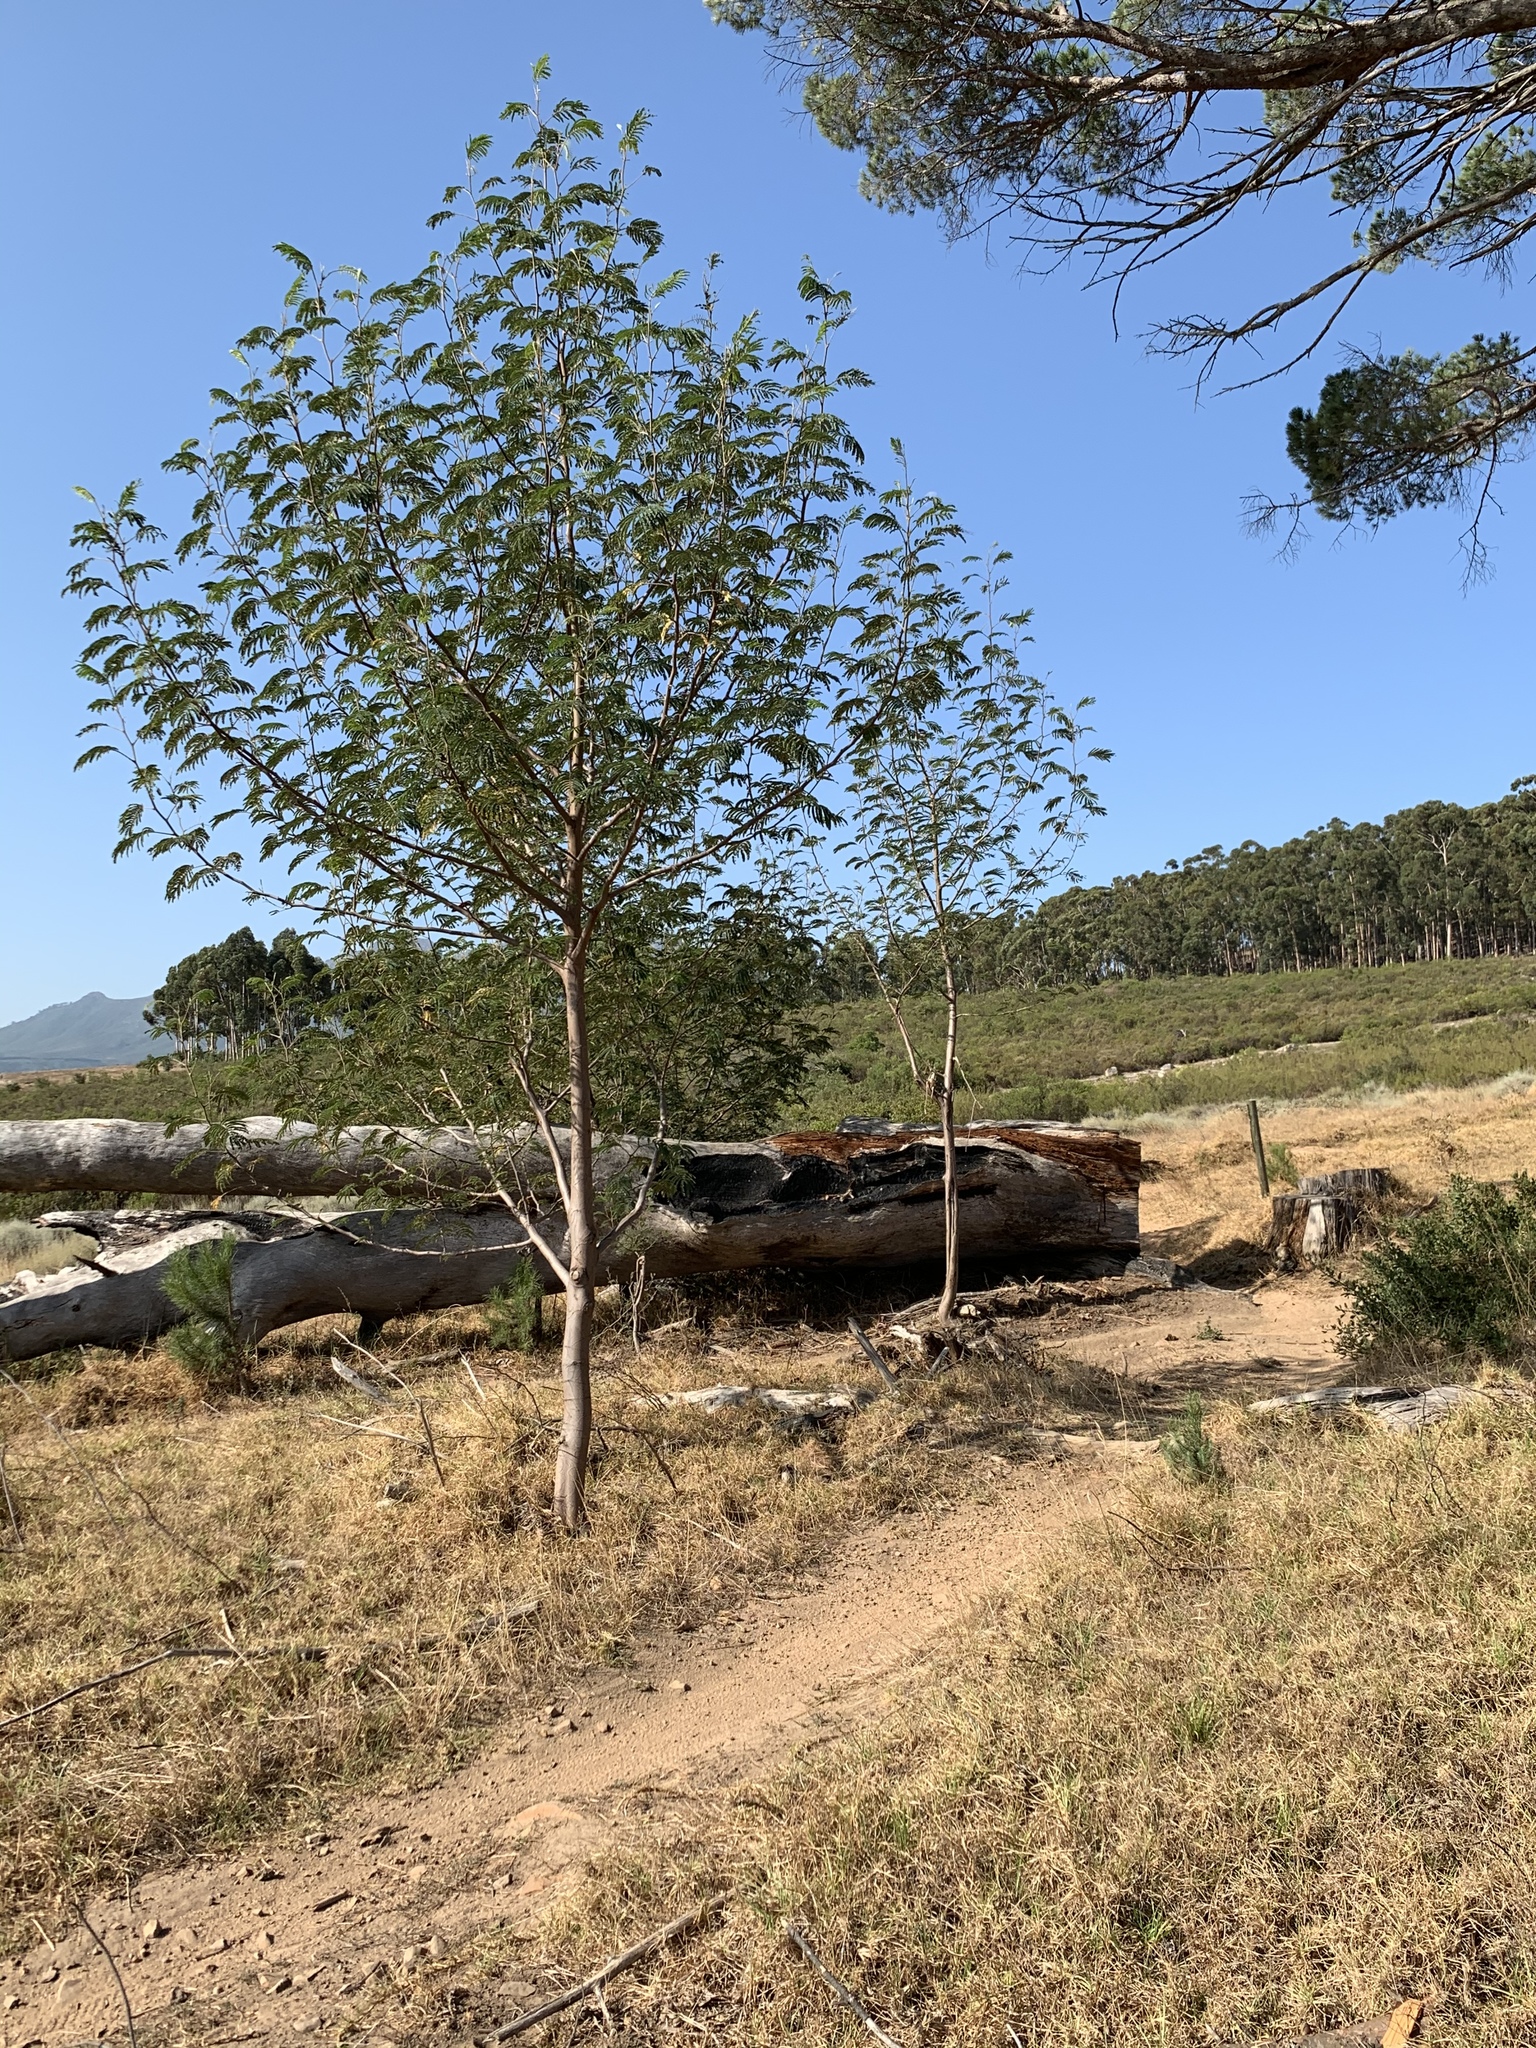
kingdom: Plantae
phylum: Tracheophyta
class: Magnoliopsida
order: Fabales
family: Fabaceae
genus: Paraserianthes
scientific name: Paraserianthes lophantha
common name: Plume albizia
